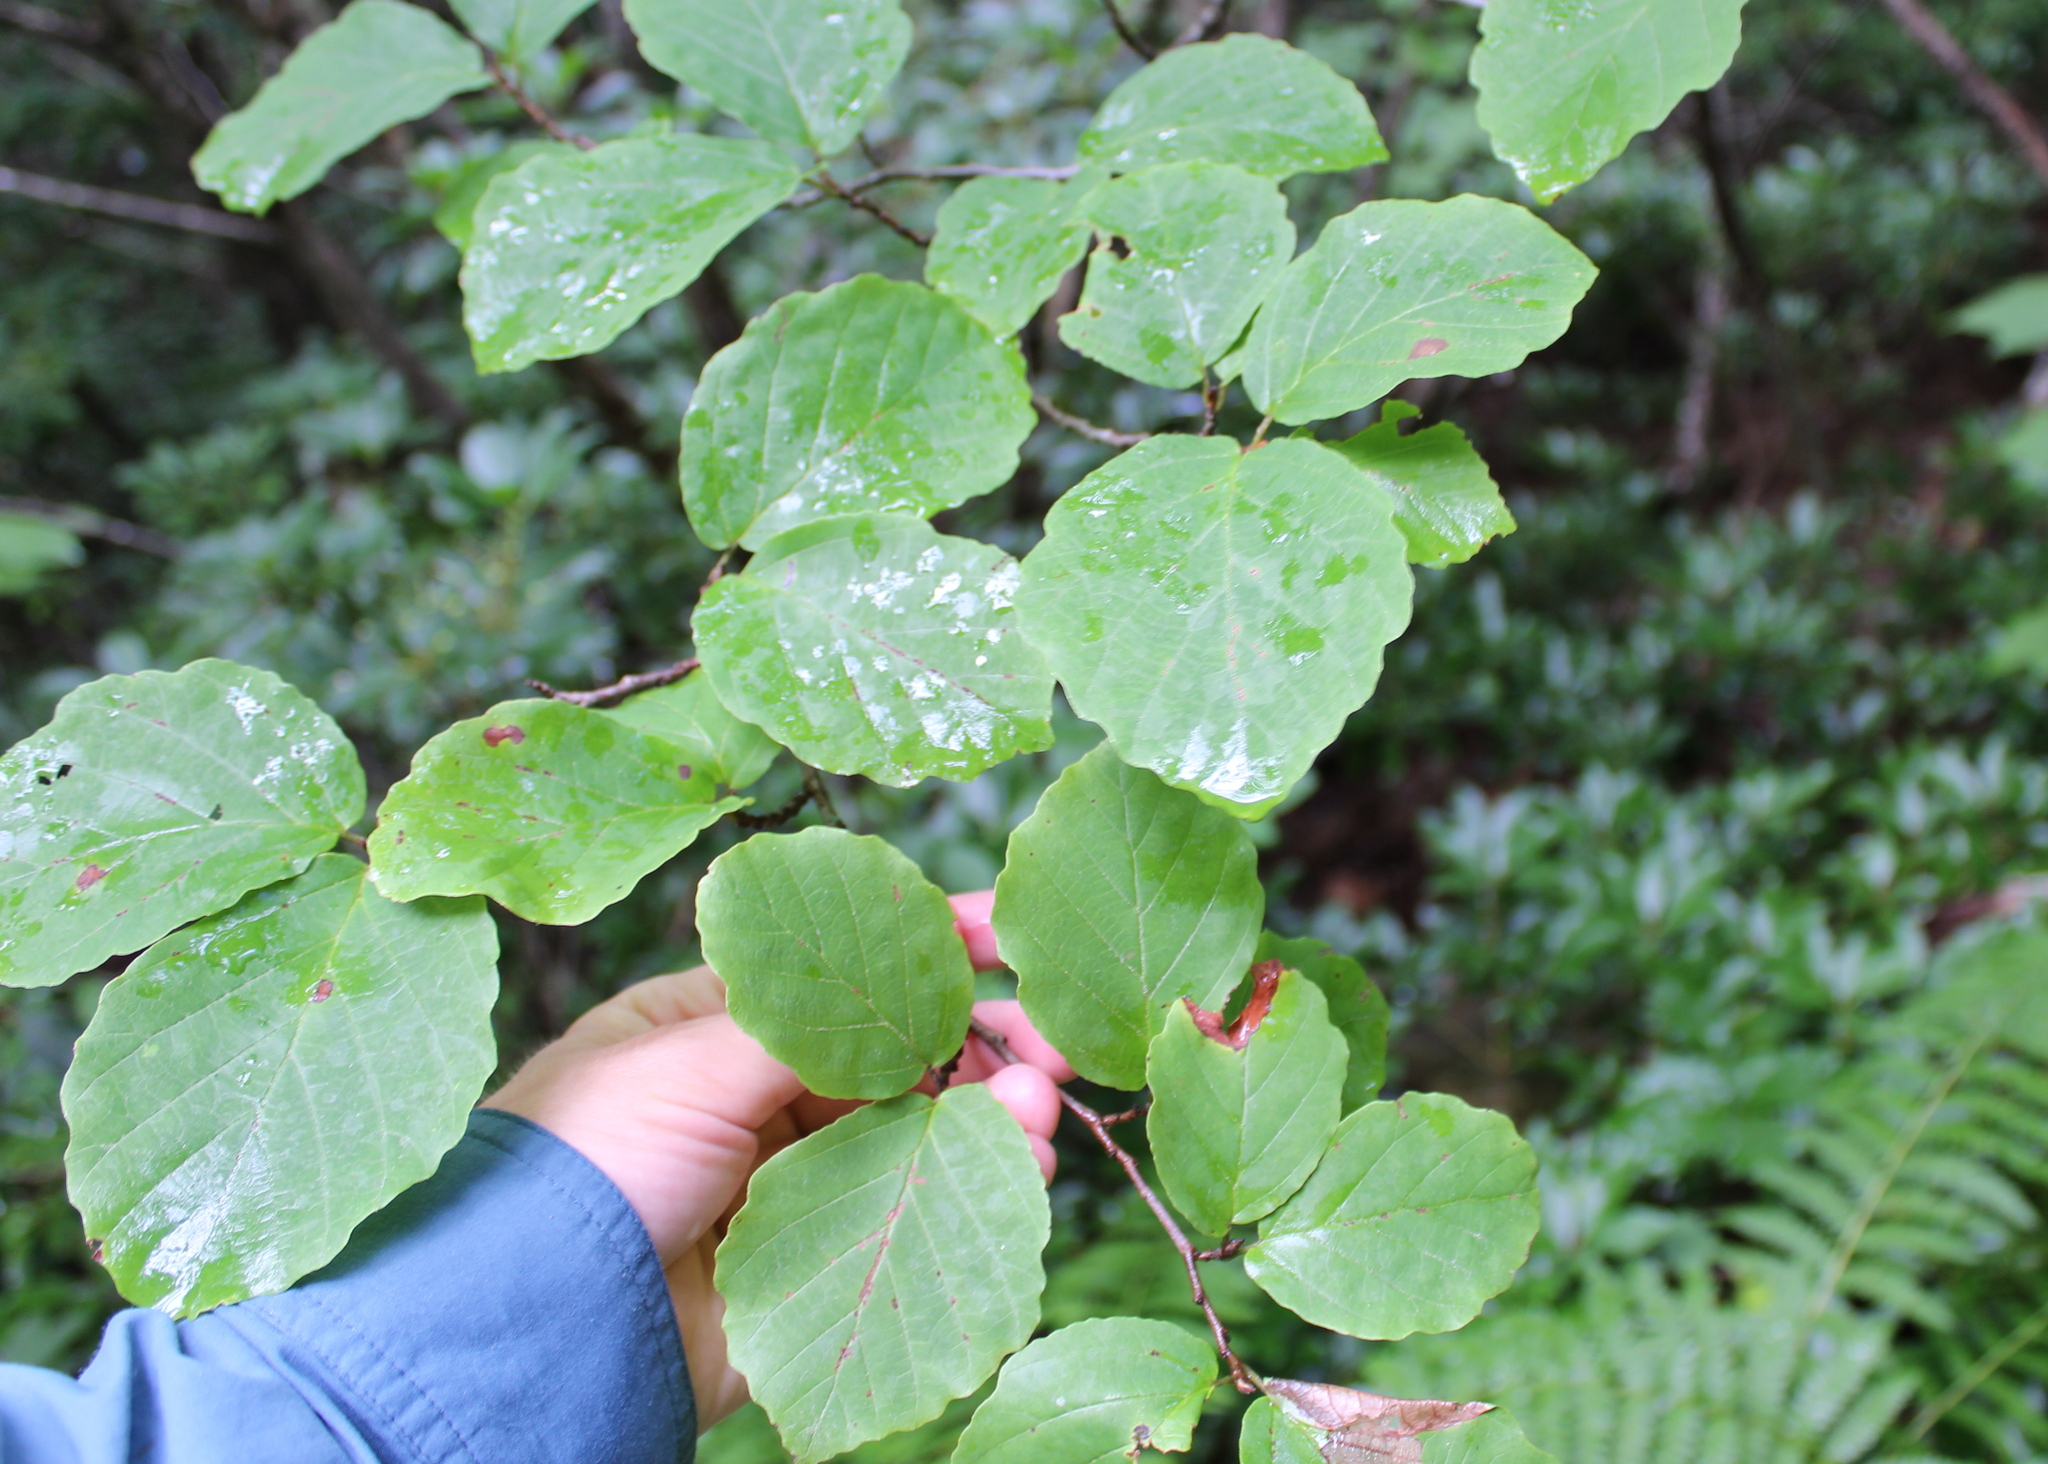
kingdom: Plantae
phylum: Tracheophyta
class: Magnoliopsida
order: Saxifragales
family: Hamamelidaceae
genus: Hamamelis
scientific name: Hamamelis virginiana
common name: Witch-hazel
